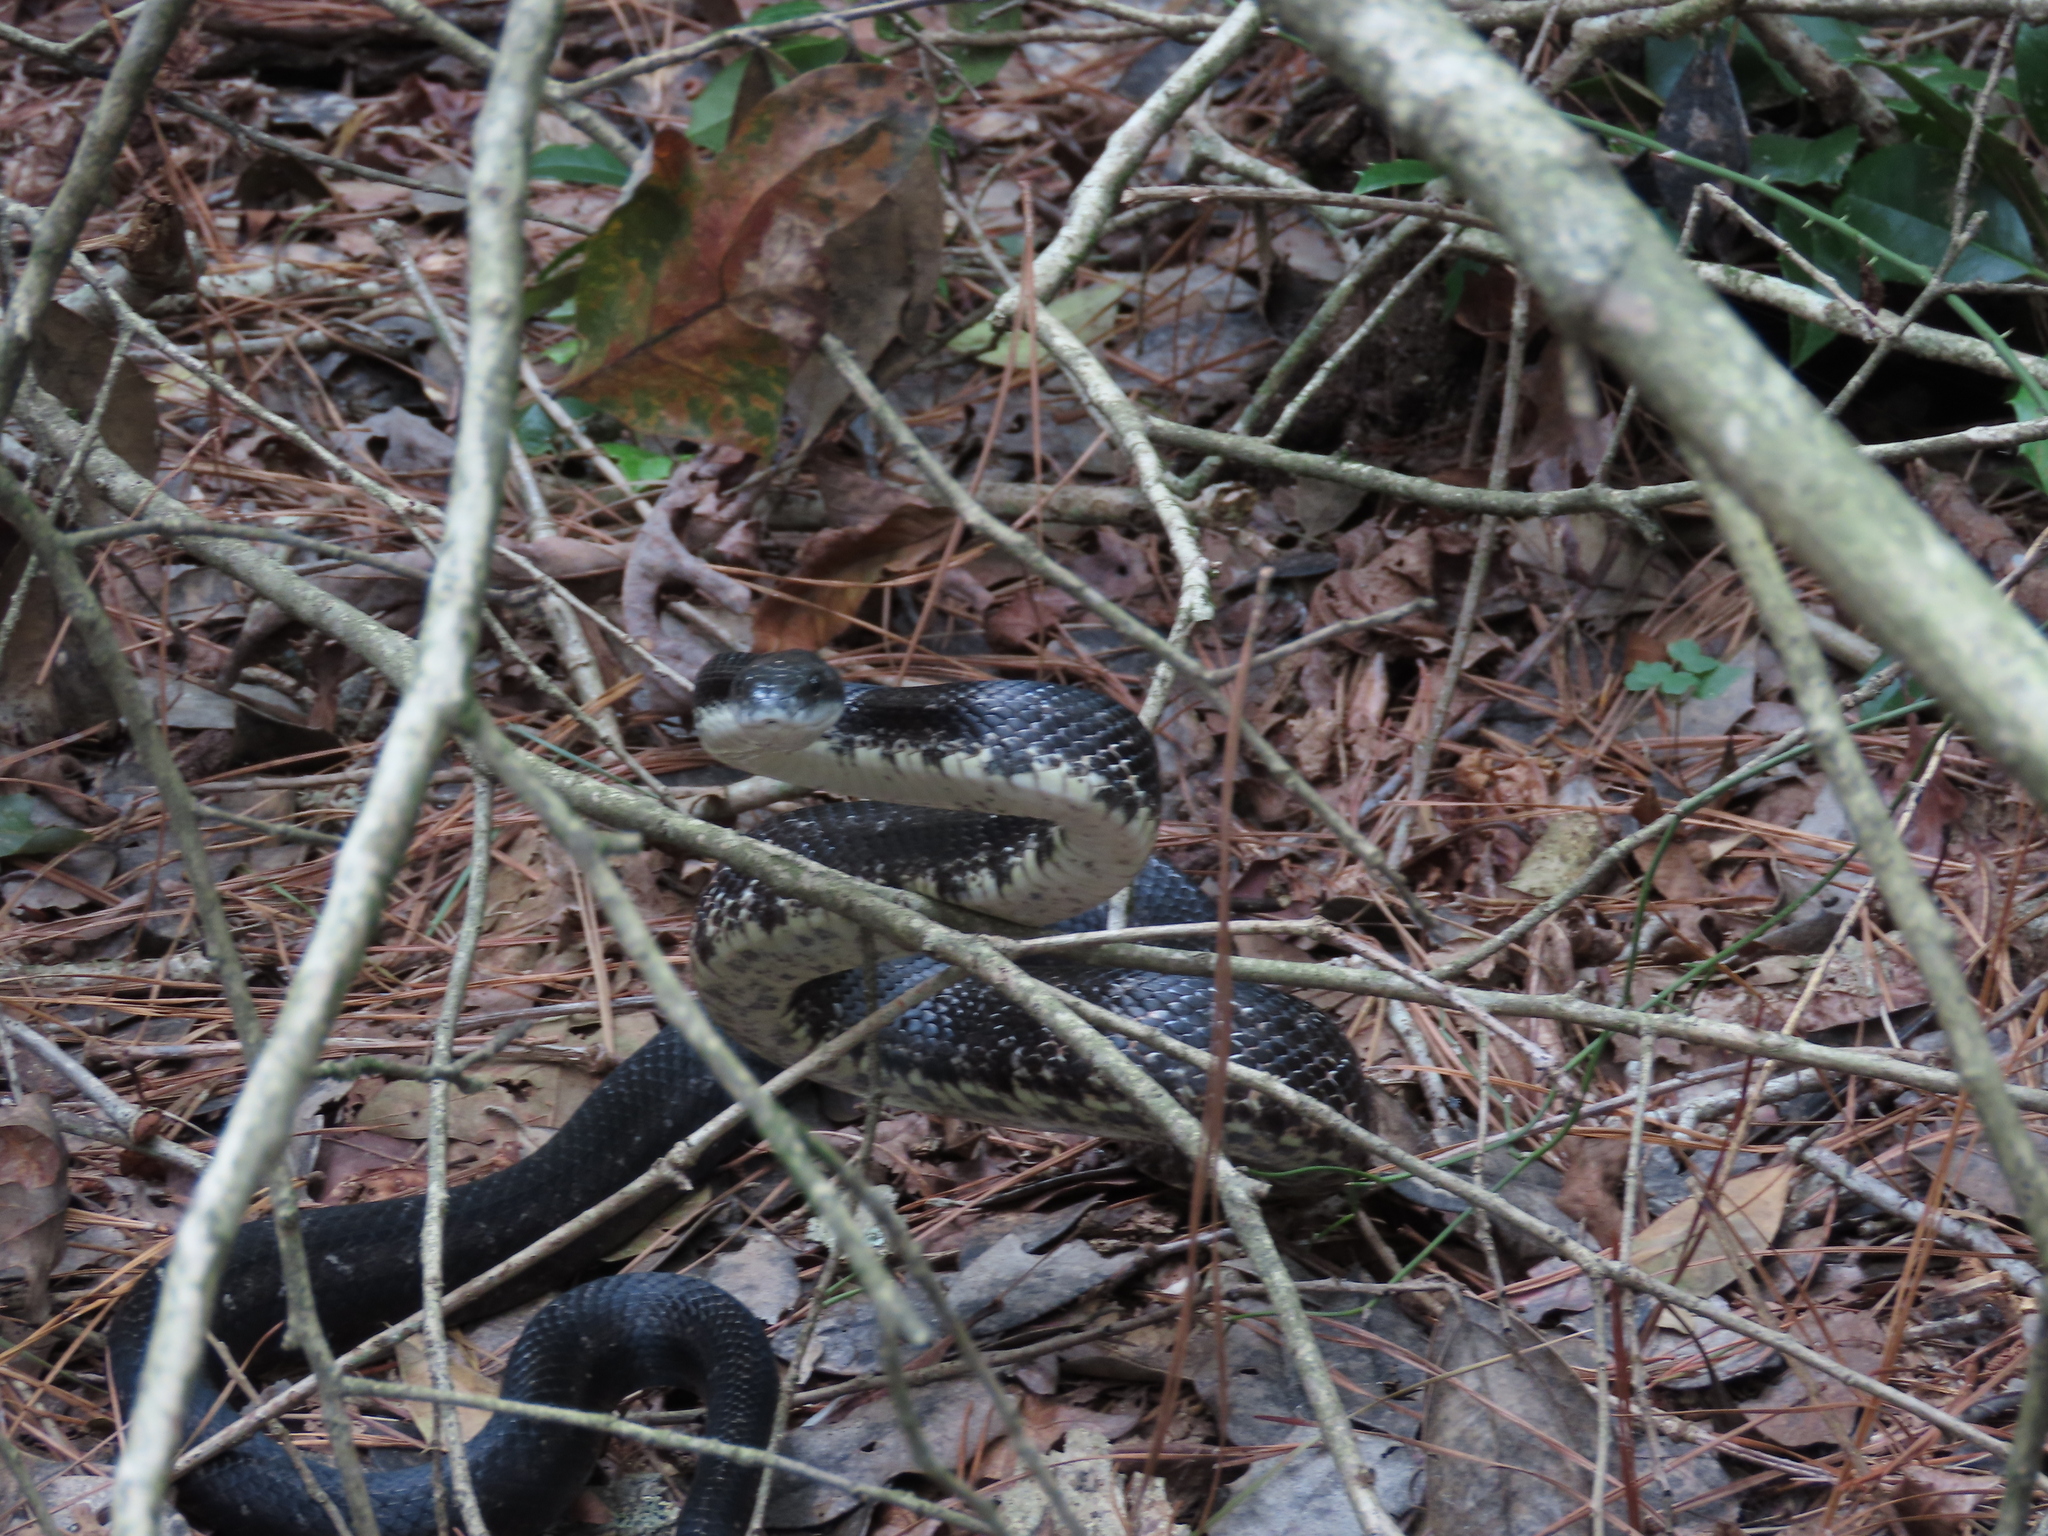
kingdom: Animalia
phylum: Chordata
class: Squamata
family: Colubridae
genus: Pantherophis
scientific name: Pantherophis alleghaniensis
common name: Eastern rat snake
